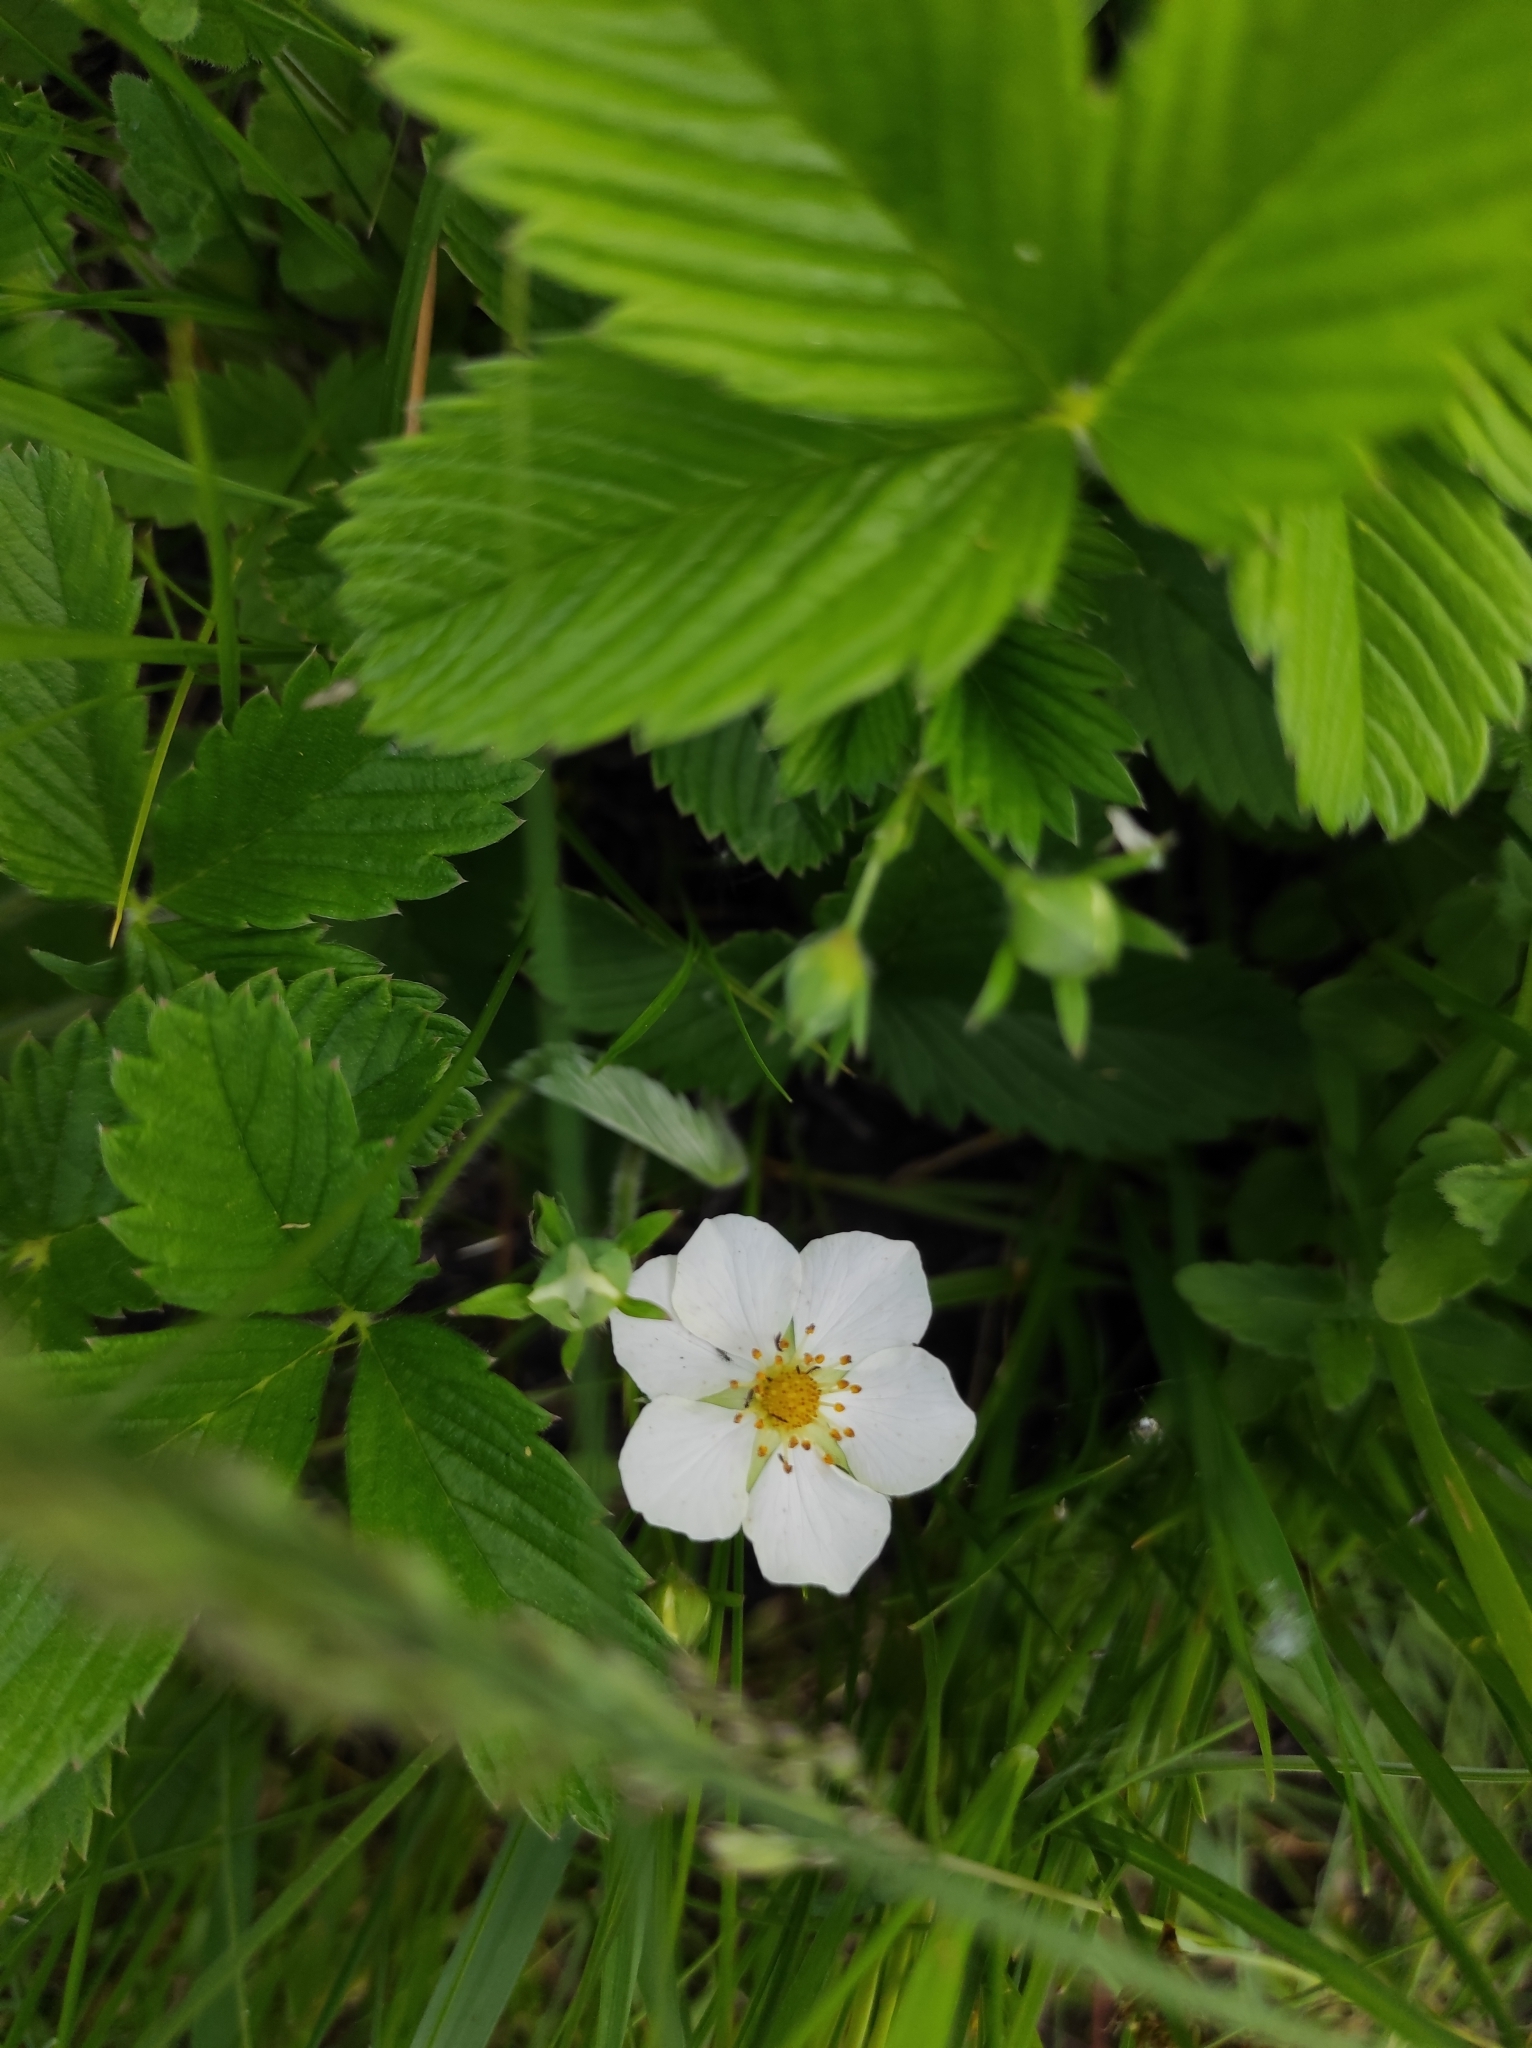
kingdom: Plantae
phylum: Tracheophyta
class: Magnoliopsida
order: Rosales
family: Rosaceae
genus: Fragaria
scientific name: Fragaria viridis
